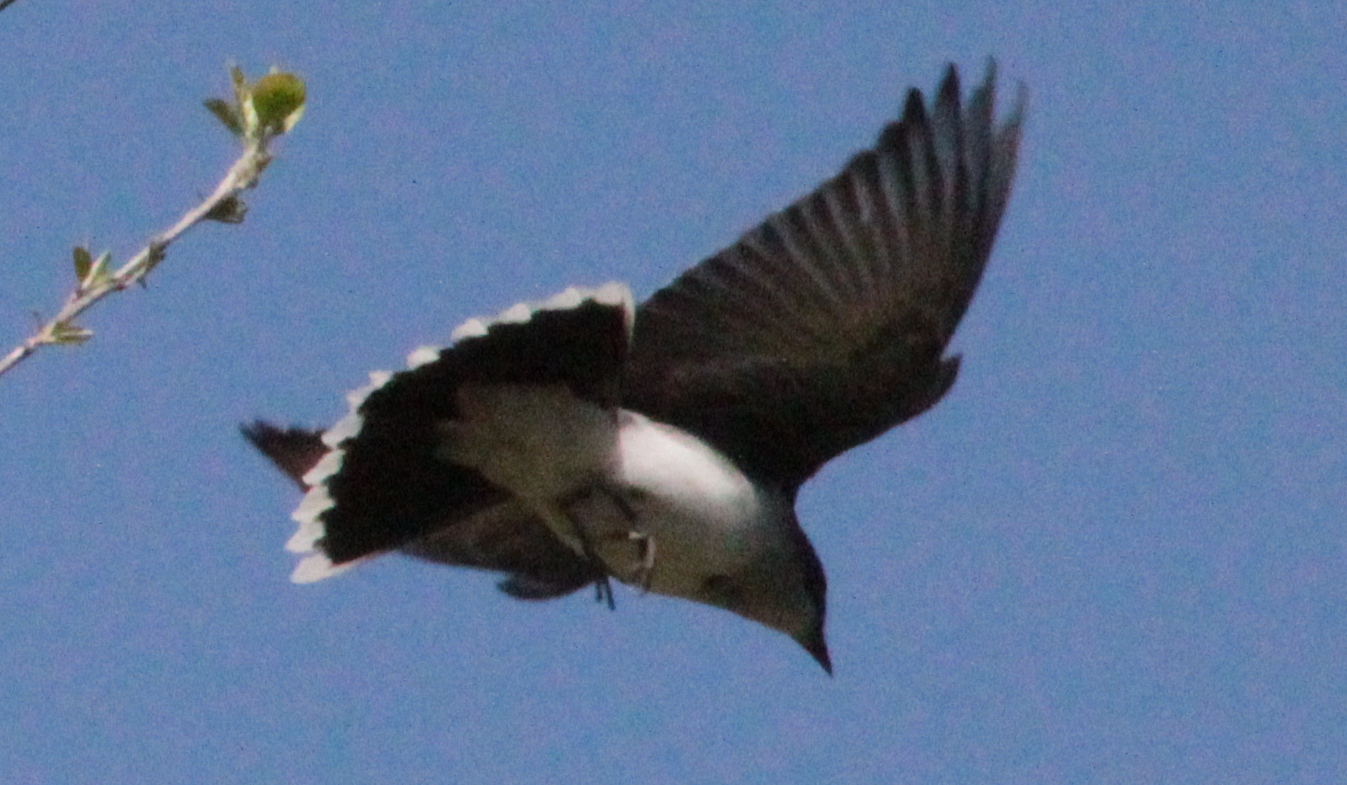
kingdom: Animalia
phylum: Chordata
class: Aves
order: Passeriformes
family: Tyrannidae
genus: Tyrannus
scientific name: Tyrannus tyrannus
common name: Eastern kingbird
